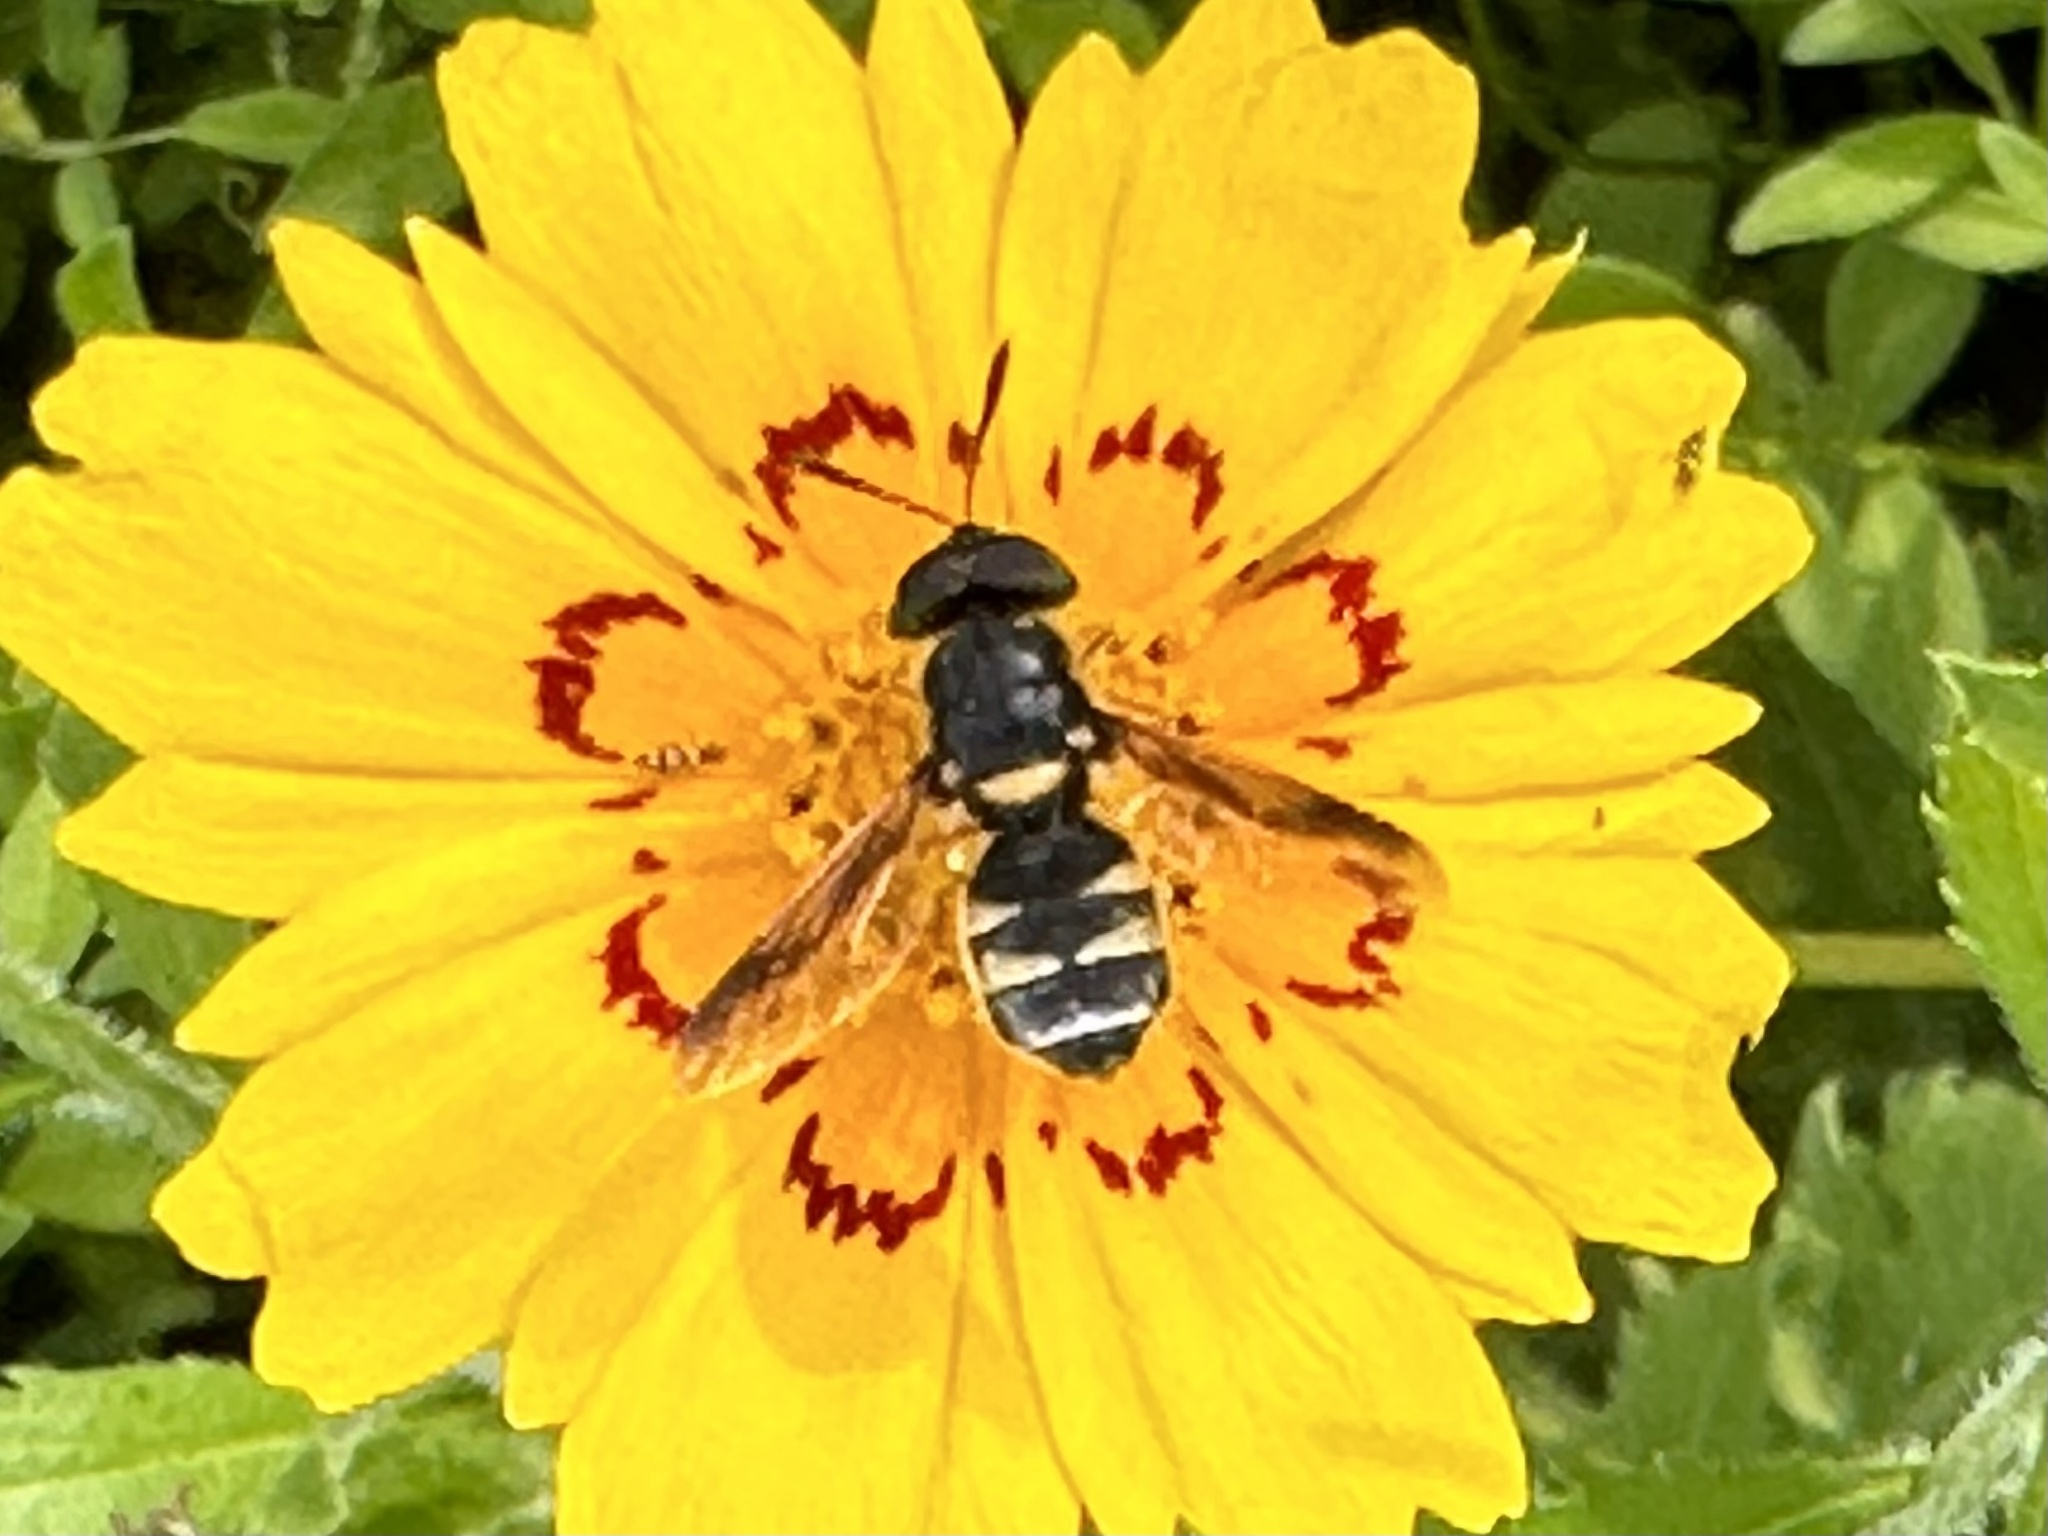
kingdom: Animalia
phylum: Arthropoda
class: Insecta
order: Diptera
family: Stratiomyidae
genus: Hoplitimyia
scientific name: Hoplitimyia constans
